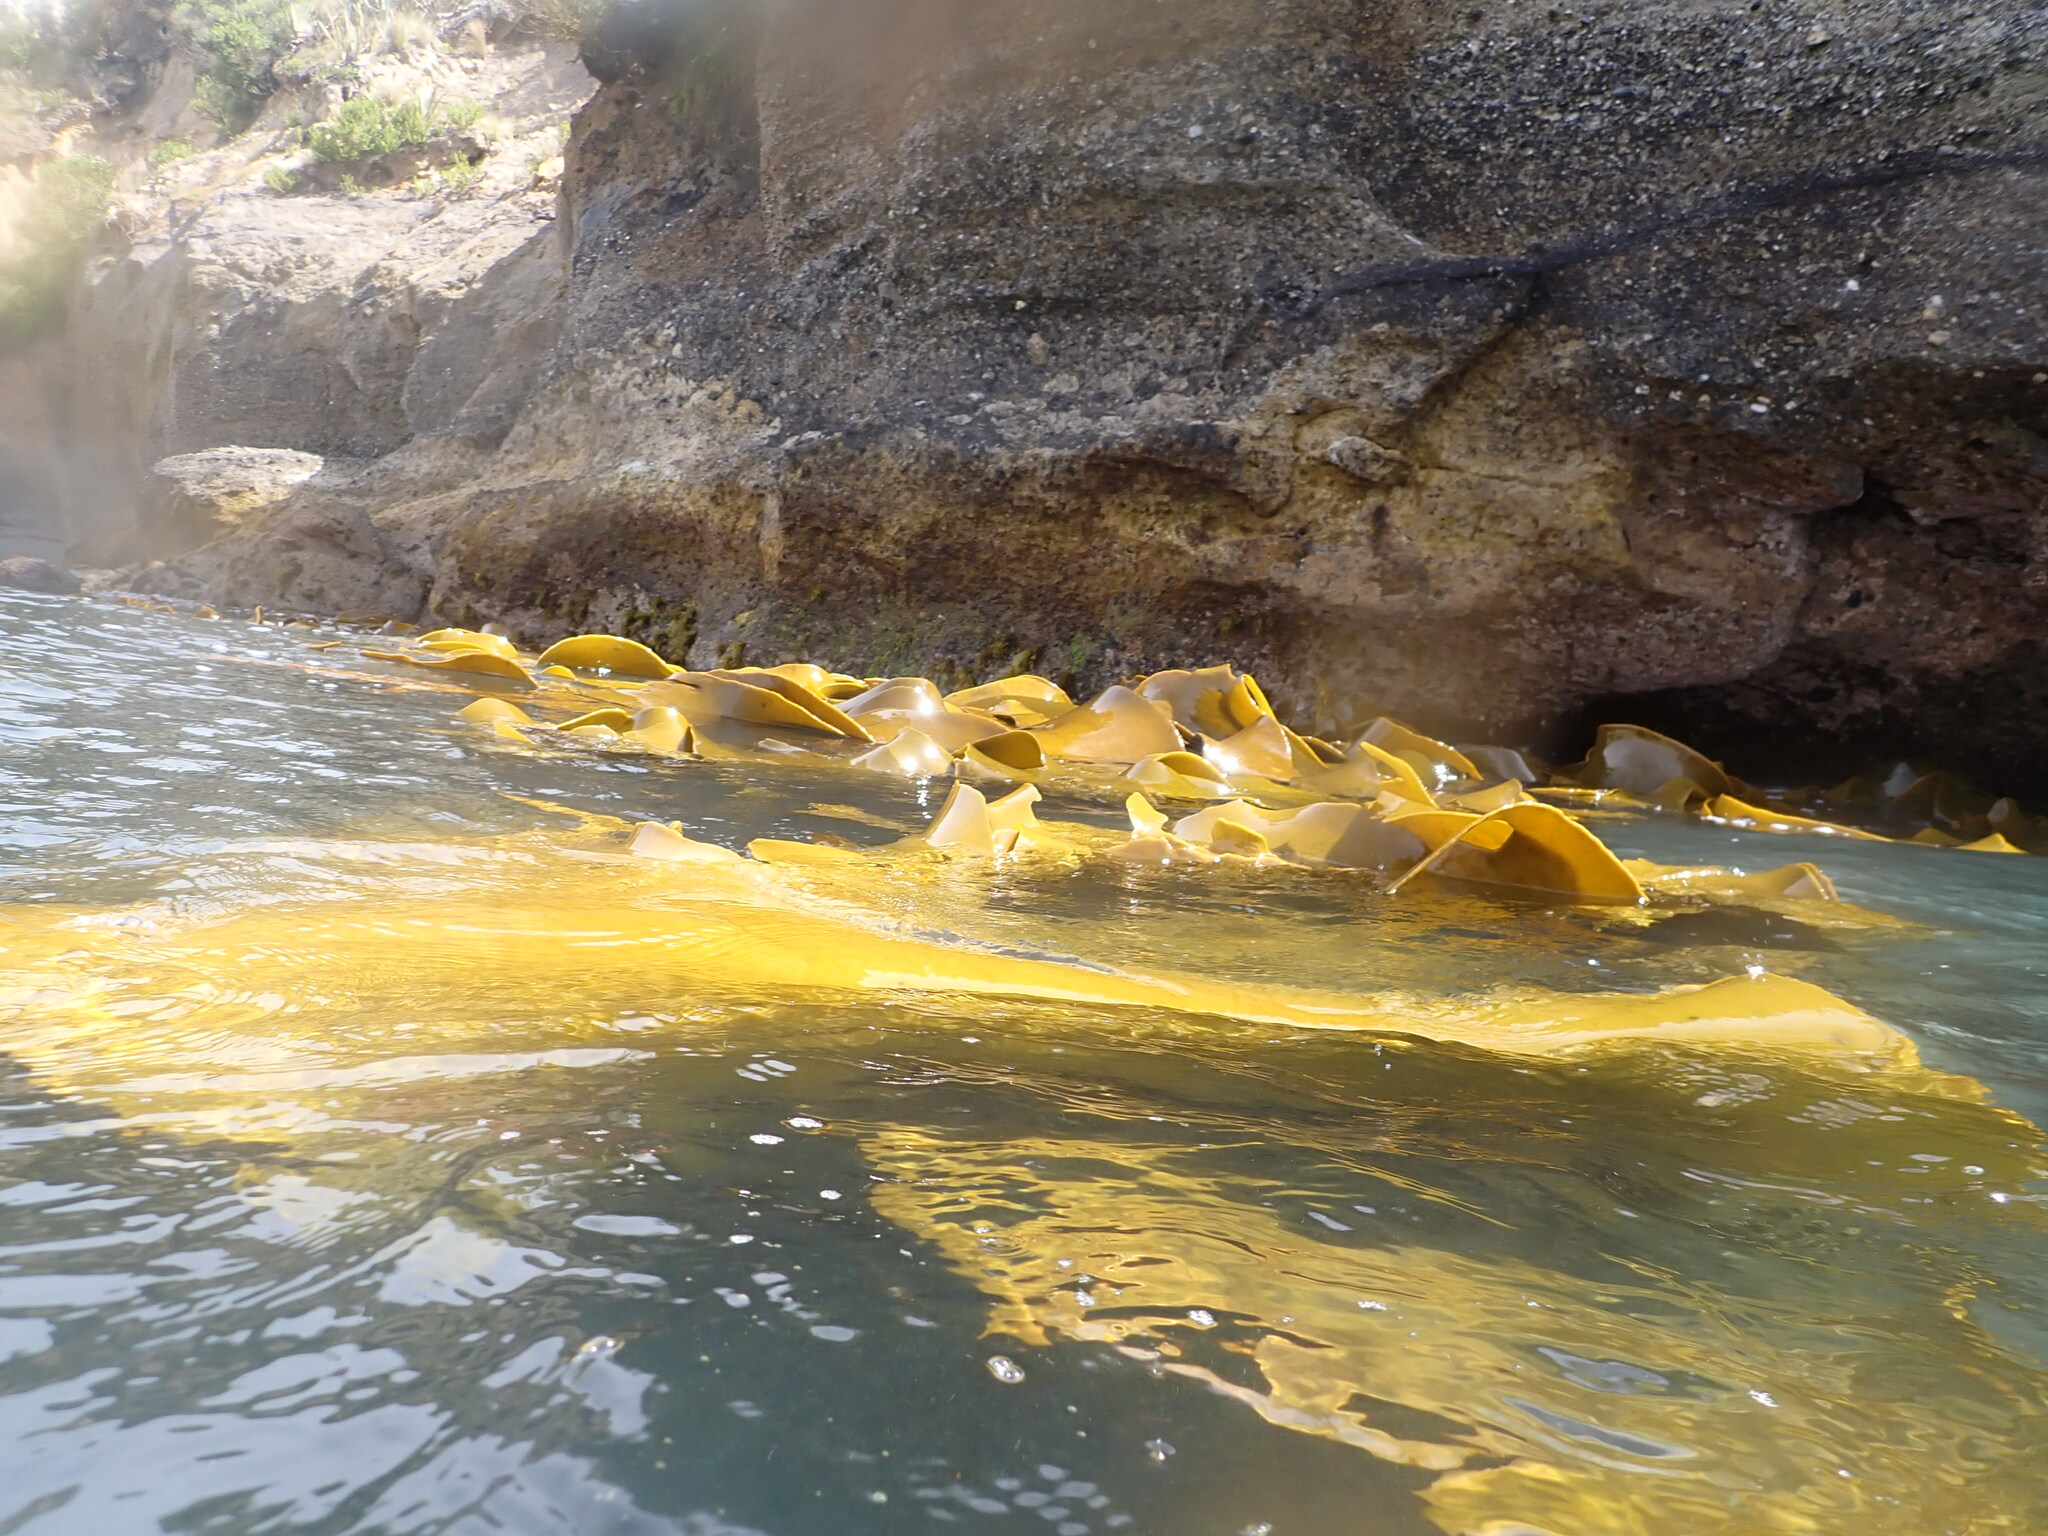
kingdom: Chromista
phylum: Ochrophyta
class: Phaeophyceae
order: Fucales
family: Durvillaeaceae
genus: Durvillaea
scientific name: Durvillaea poha
